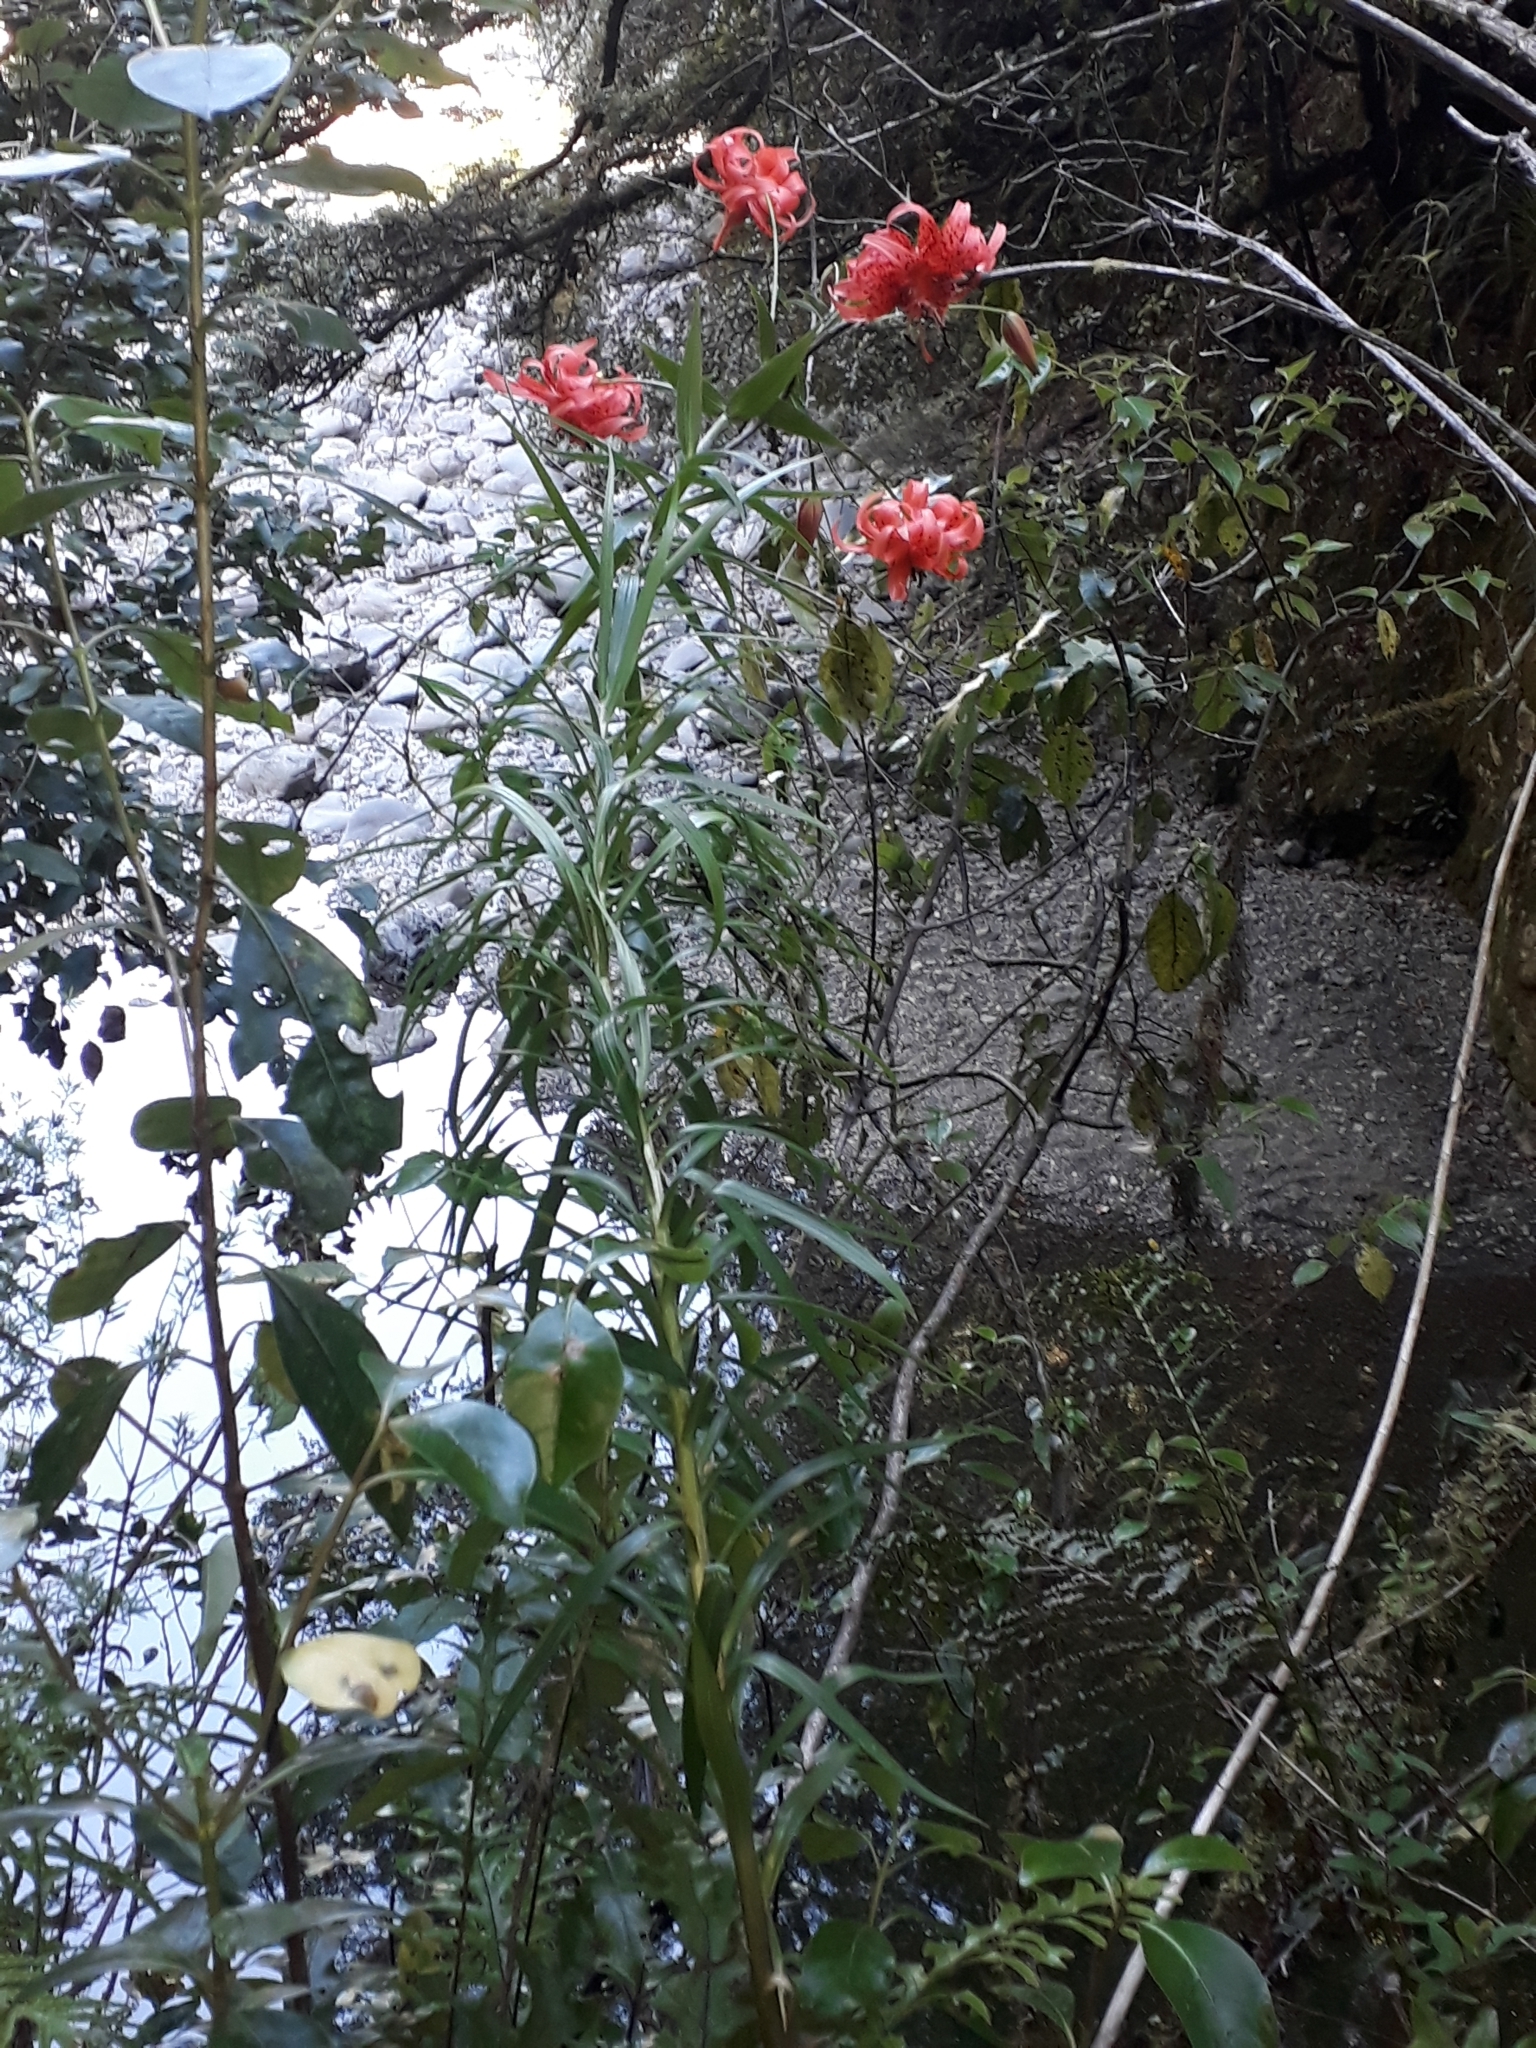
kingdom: Plantae
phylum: Tracheophyta
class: Liliopsida
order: Liliales
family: Liliaceae
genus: Lilium
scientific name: Lilium lancifolium
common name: Tiger lily
